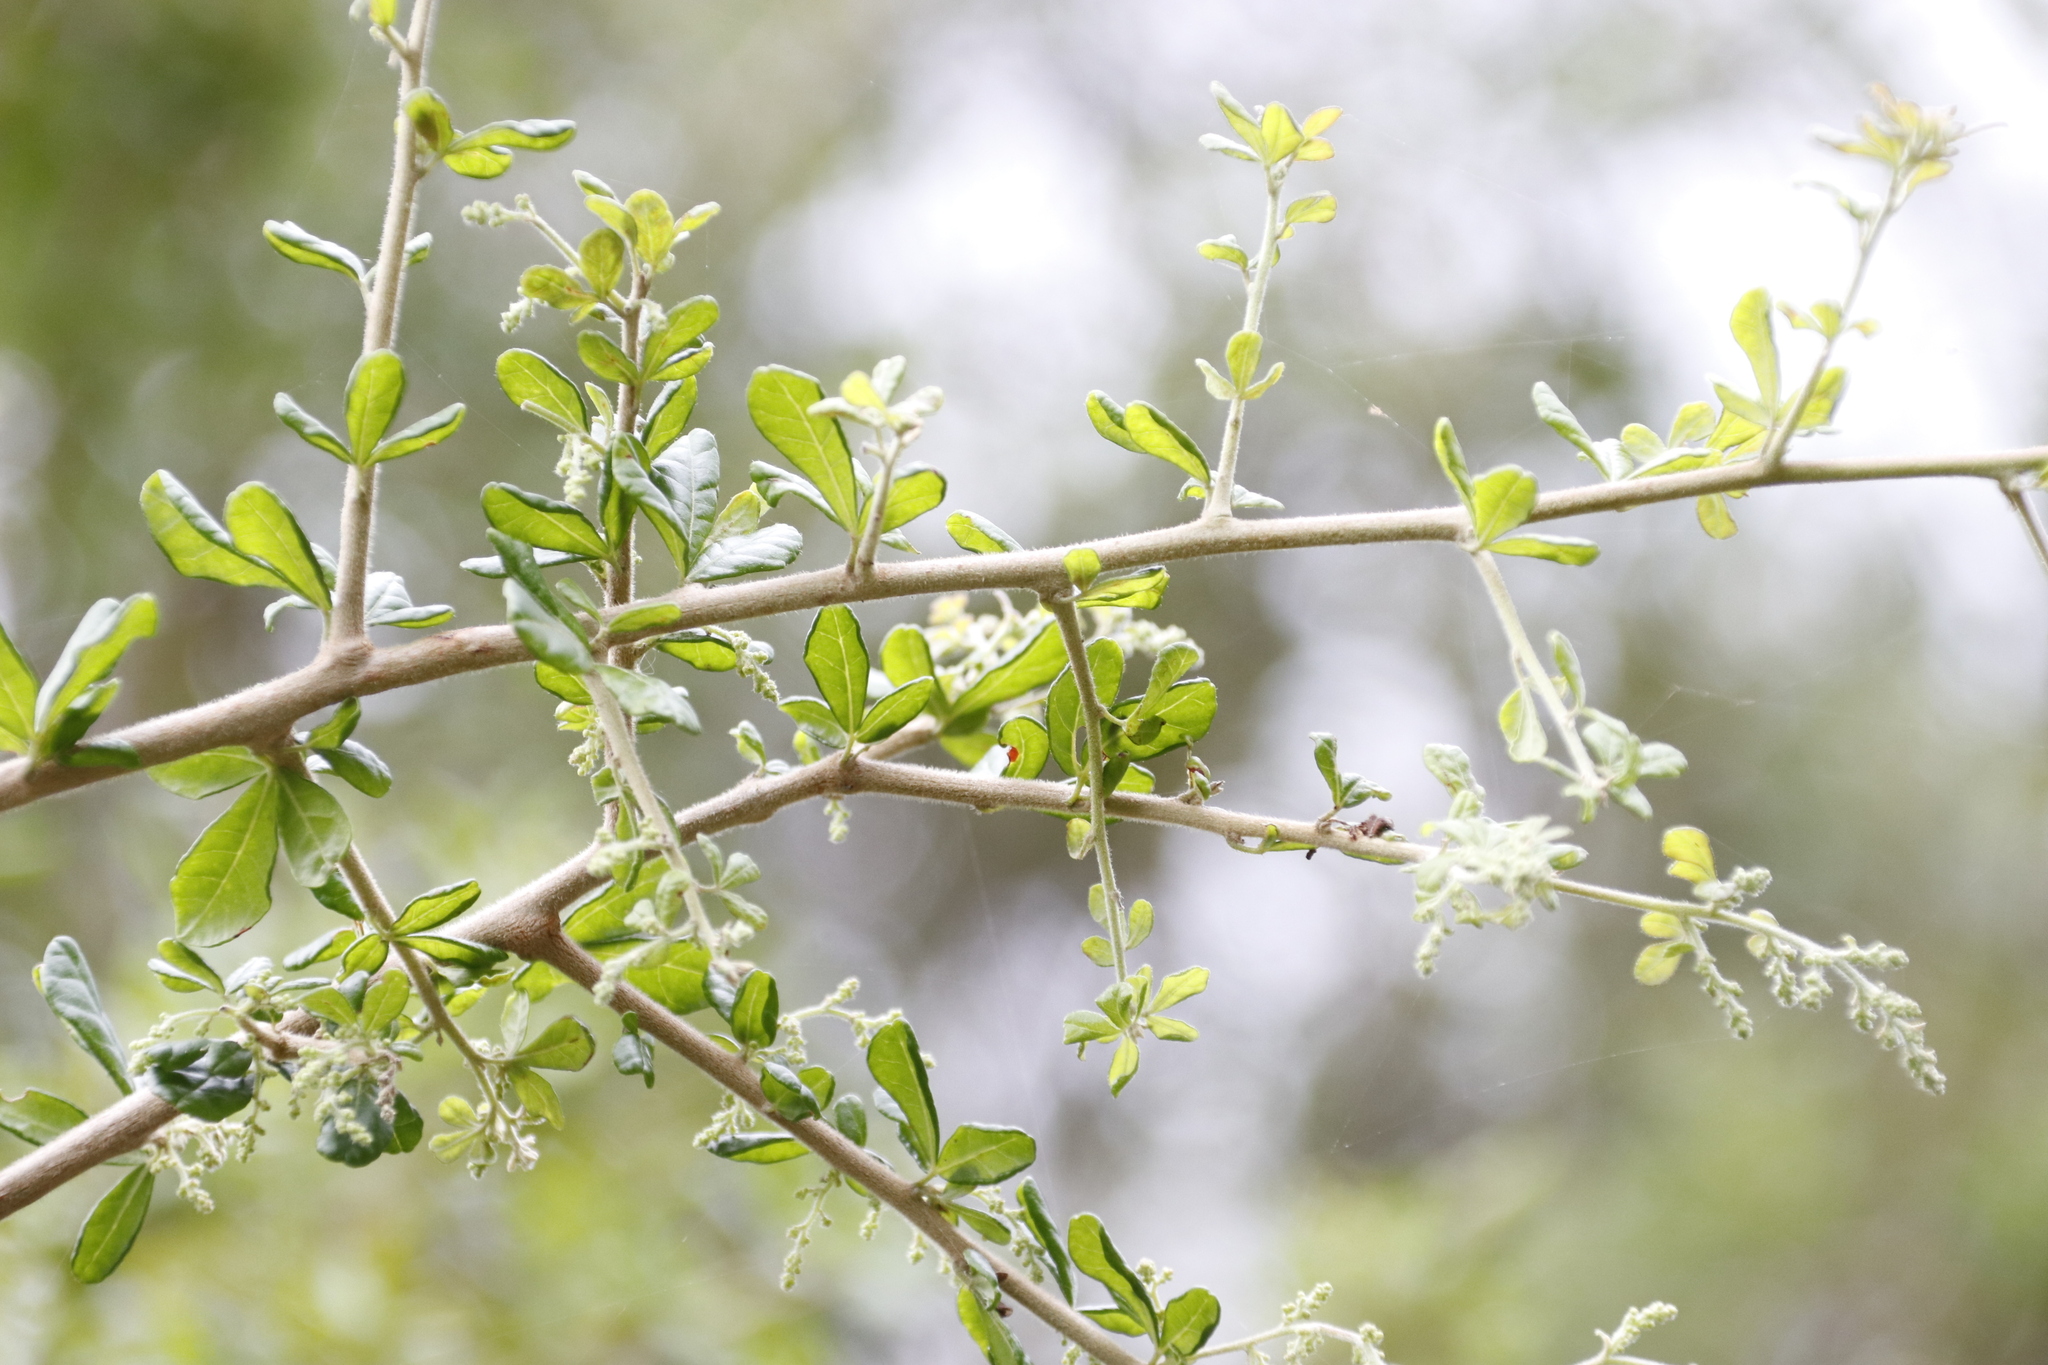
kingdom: Plantae
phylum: Tracheophyta
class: Magnoliopsida
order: Sapindales
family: Anacardiaceae
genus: Searsia
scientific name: Searsia refracta
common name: Thorny crow-berry
